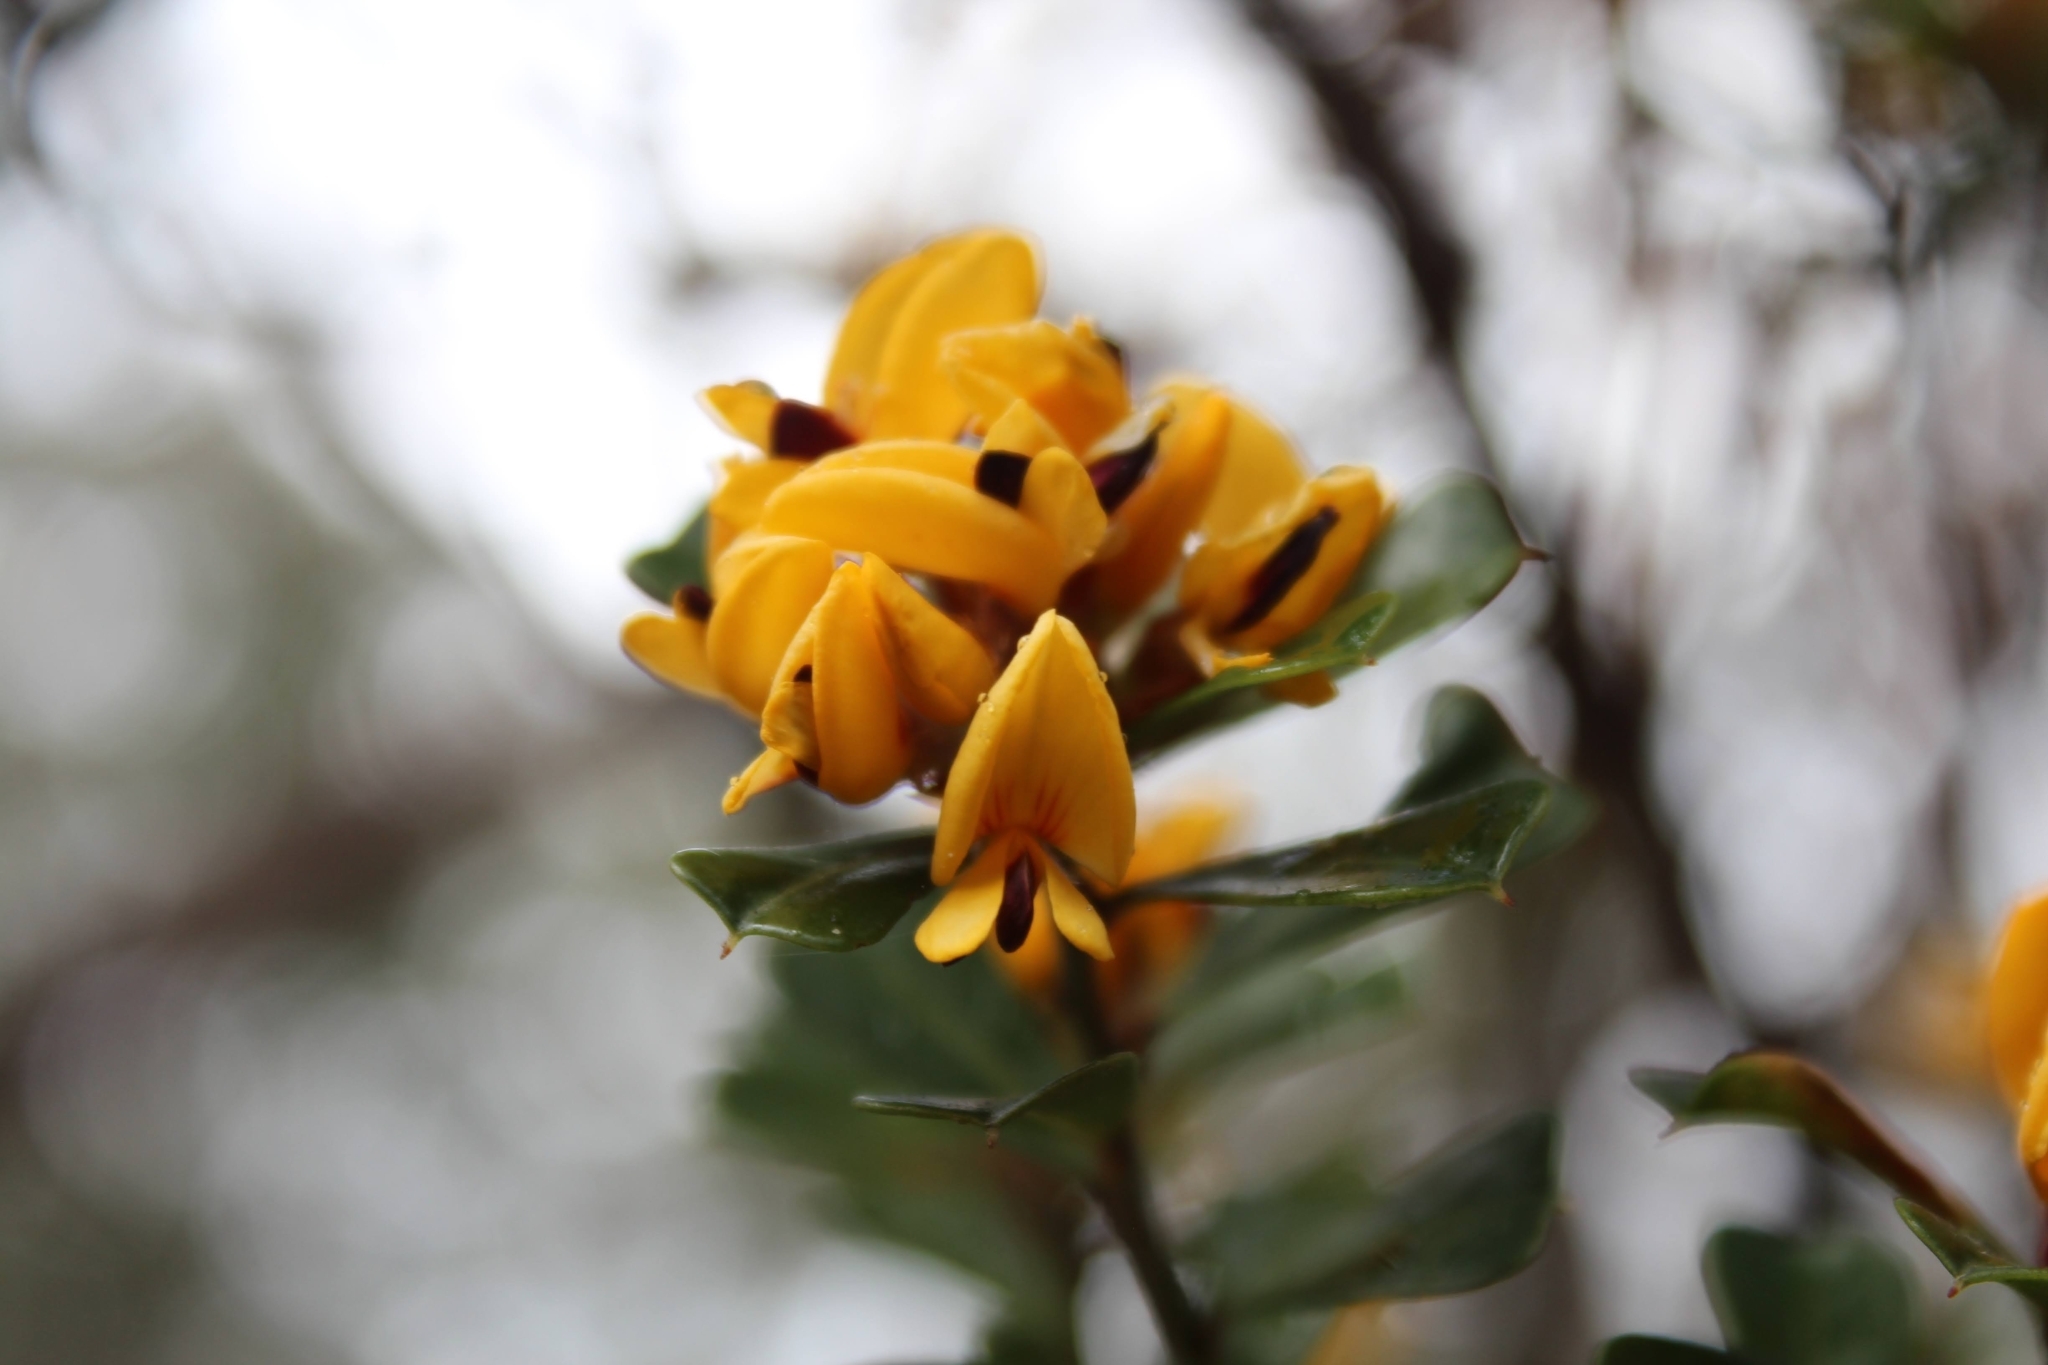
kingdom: Plantae
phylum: Tracheophyta
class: Magnoliopsida
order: Fabales
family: Fabaceae
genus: Pultenaea
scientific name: Pultenaea daphnoides
